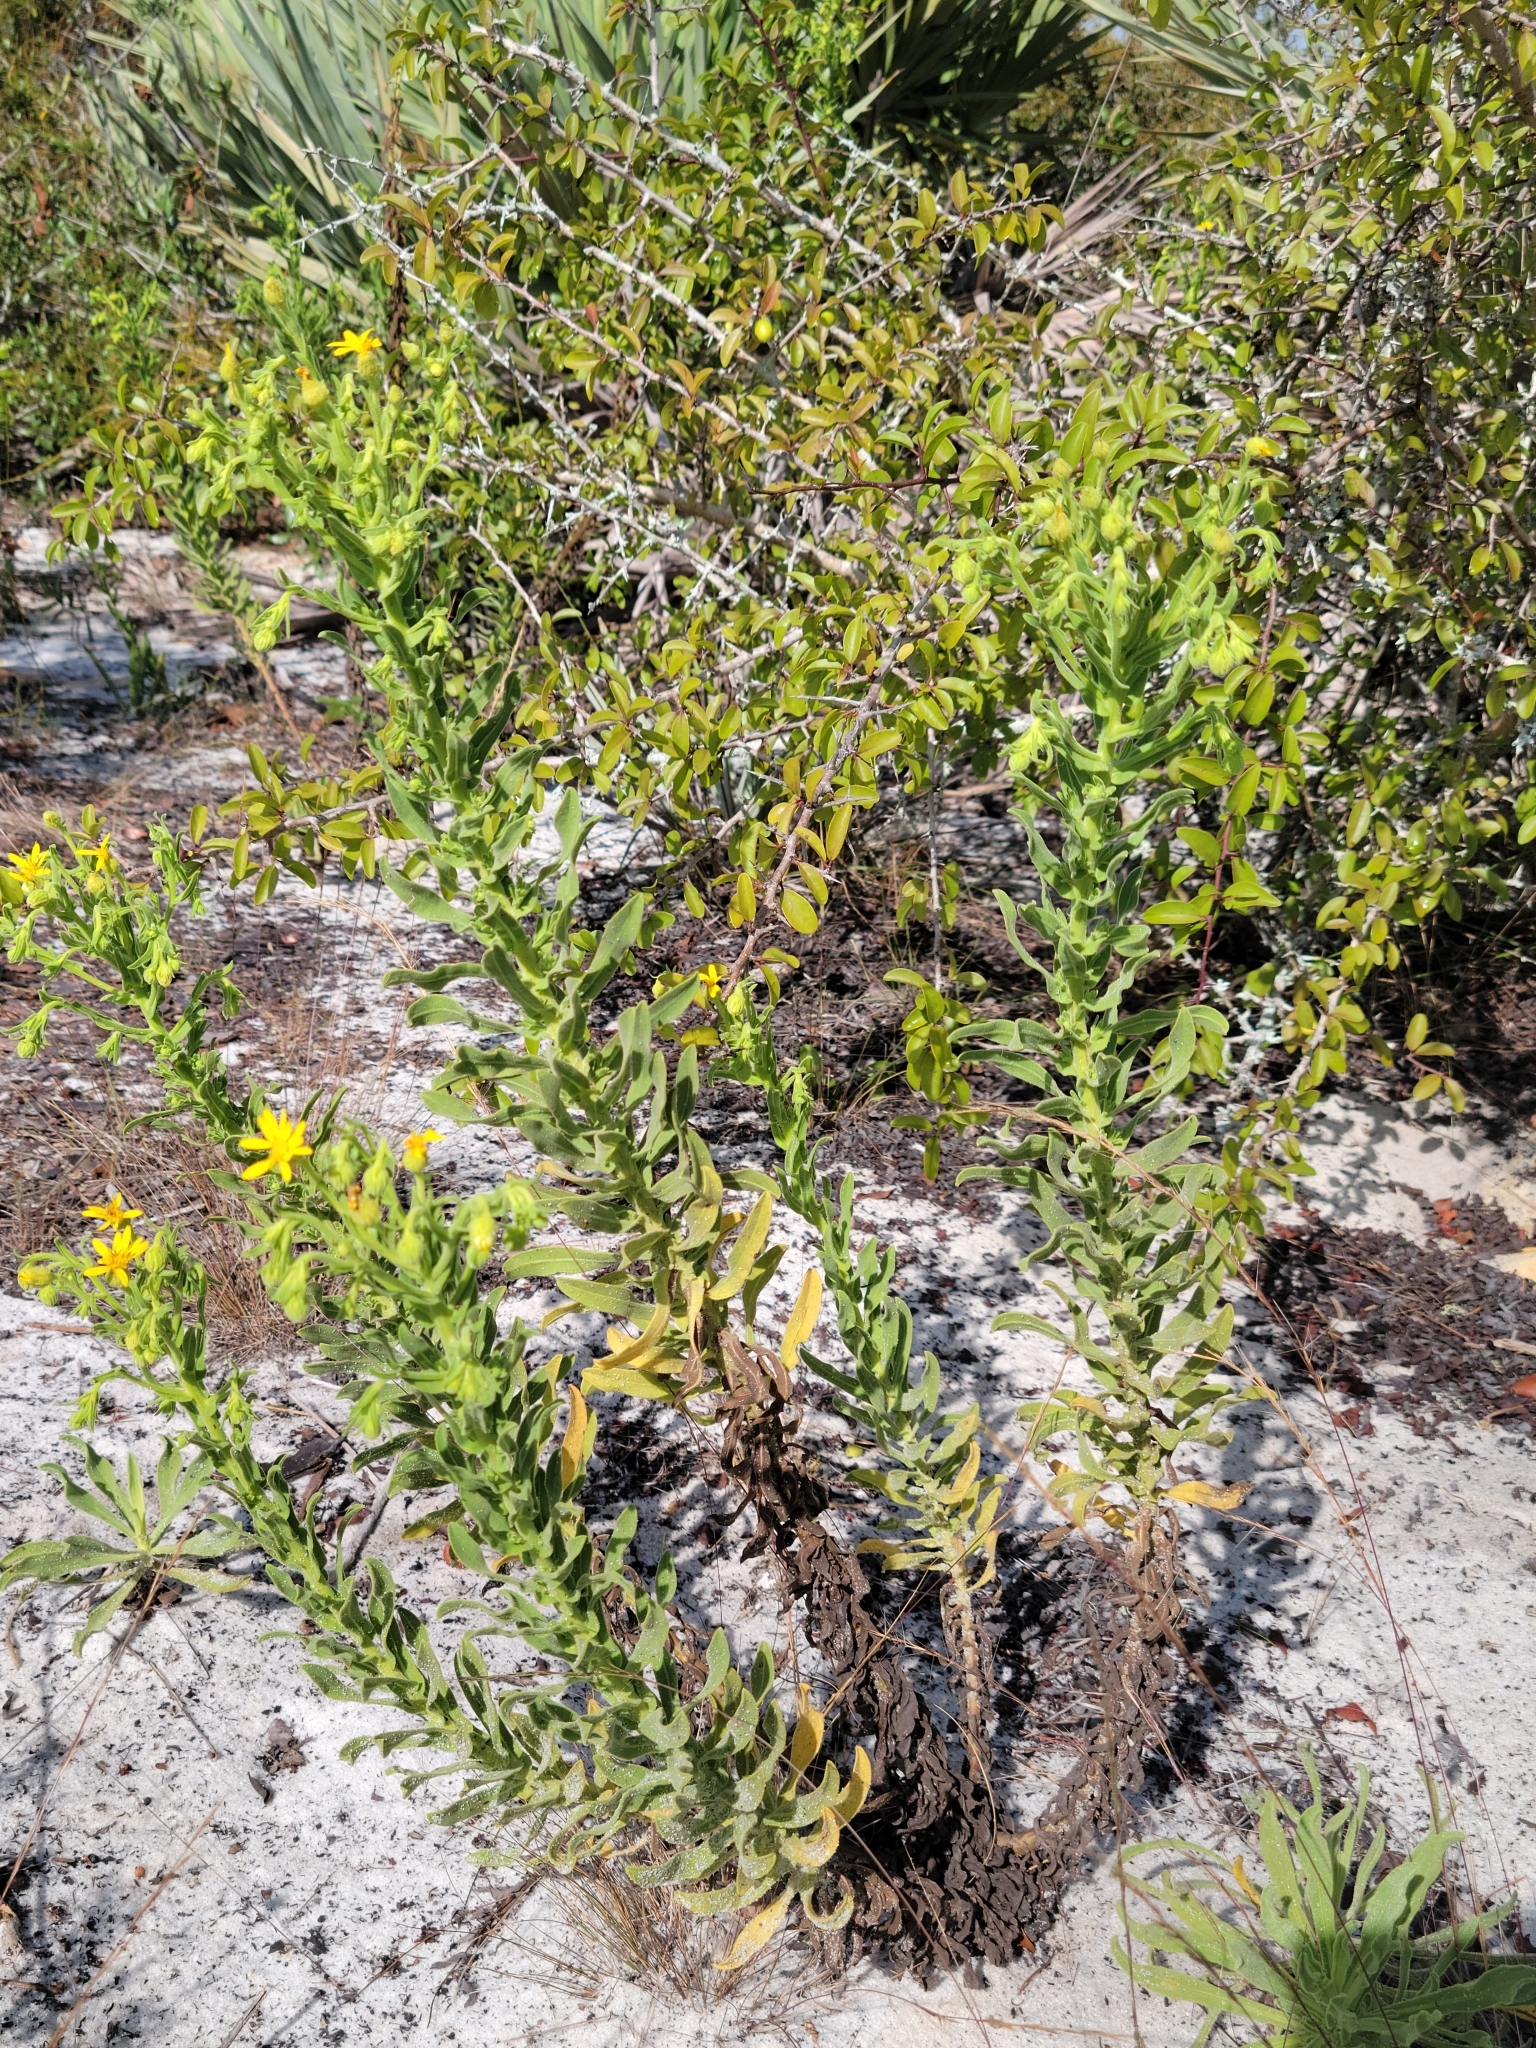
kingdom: Plantae
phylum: Tracheophyta
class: Magnoliopsida
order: Asterales
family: Asteraceae
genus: Chrysopsis
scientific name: Chrysopsis delaneyi
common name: Delaney's goldenaster
